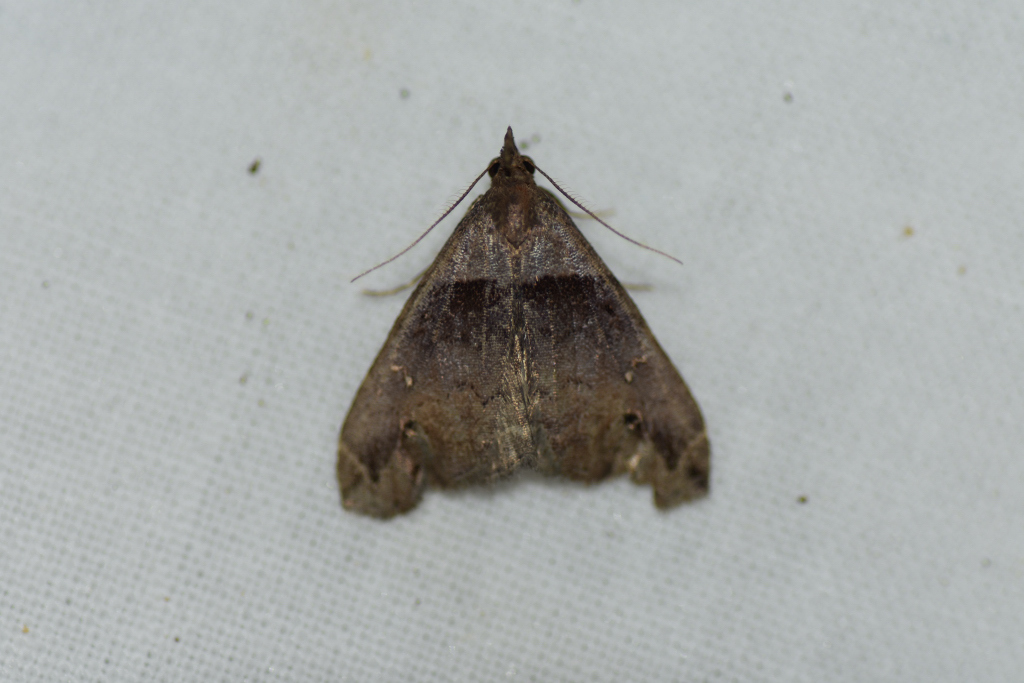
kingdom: Animalia
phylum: Arthropoda
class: Insecta
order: Lepidoptera
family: Erebidae
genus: Lascoria
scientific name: Lascoria ambigualis
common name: Ambiguous moth
